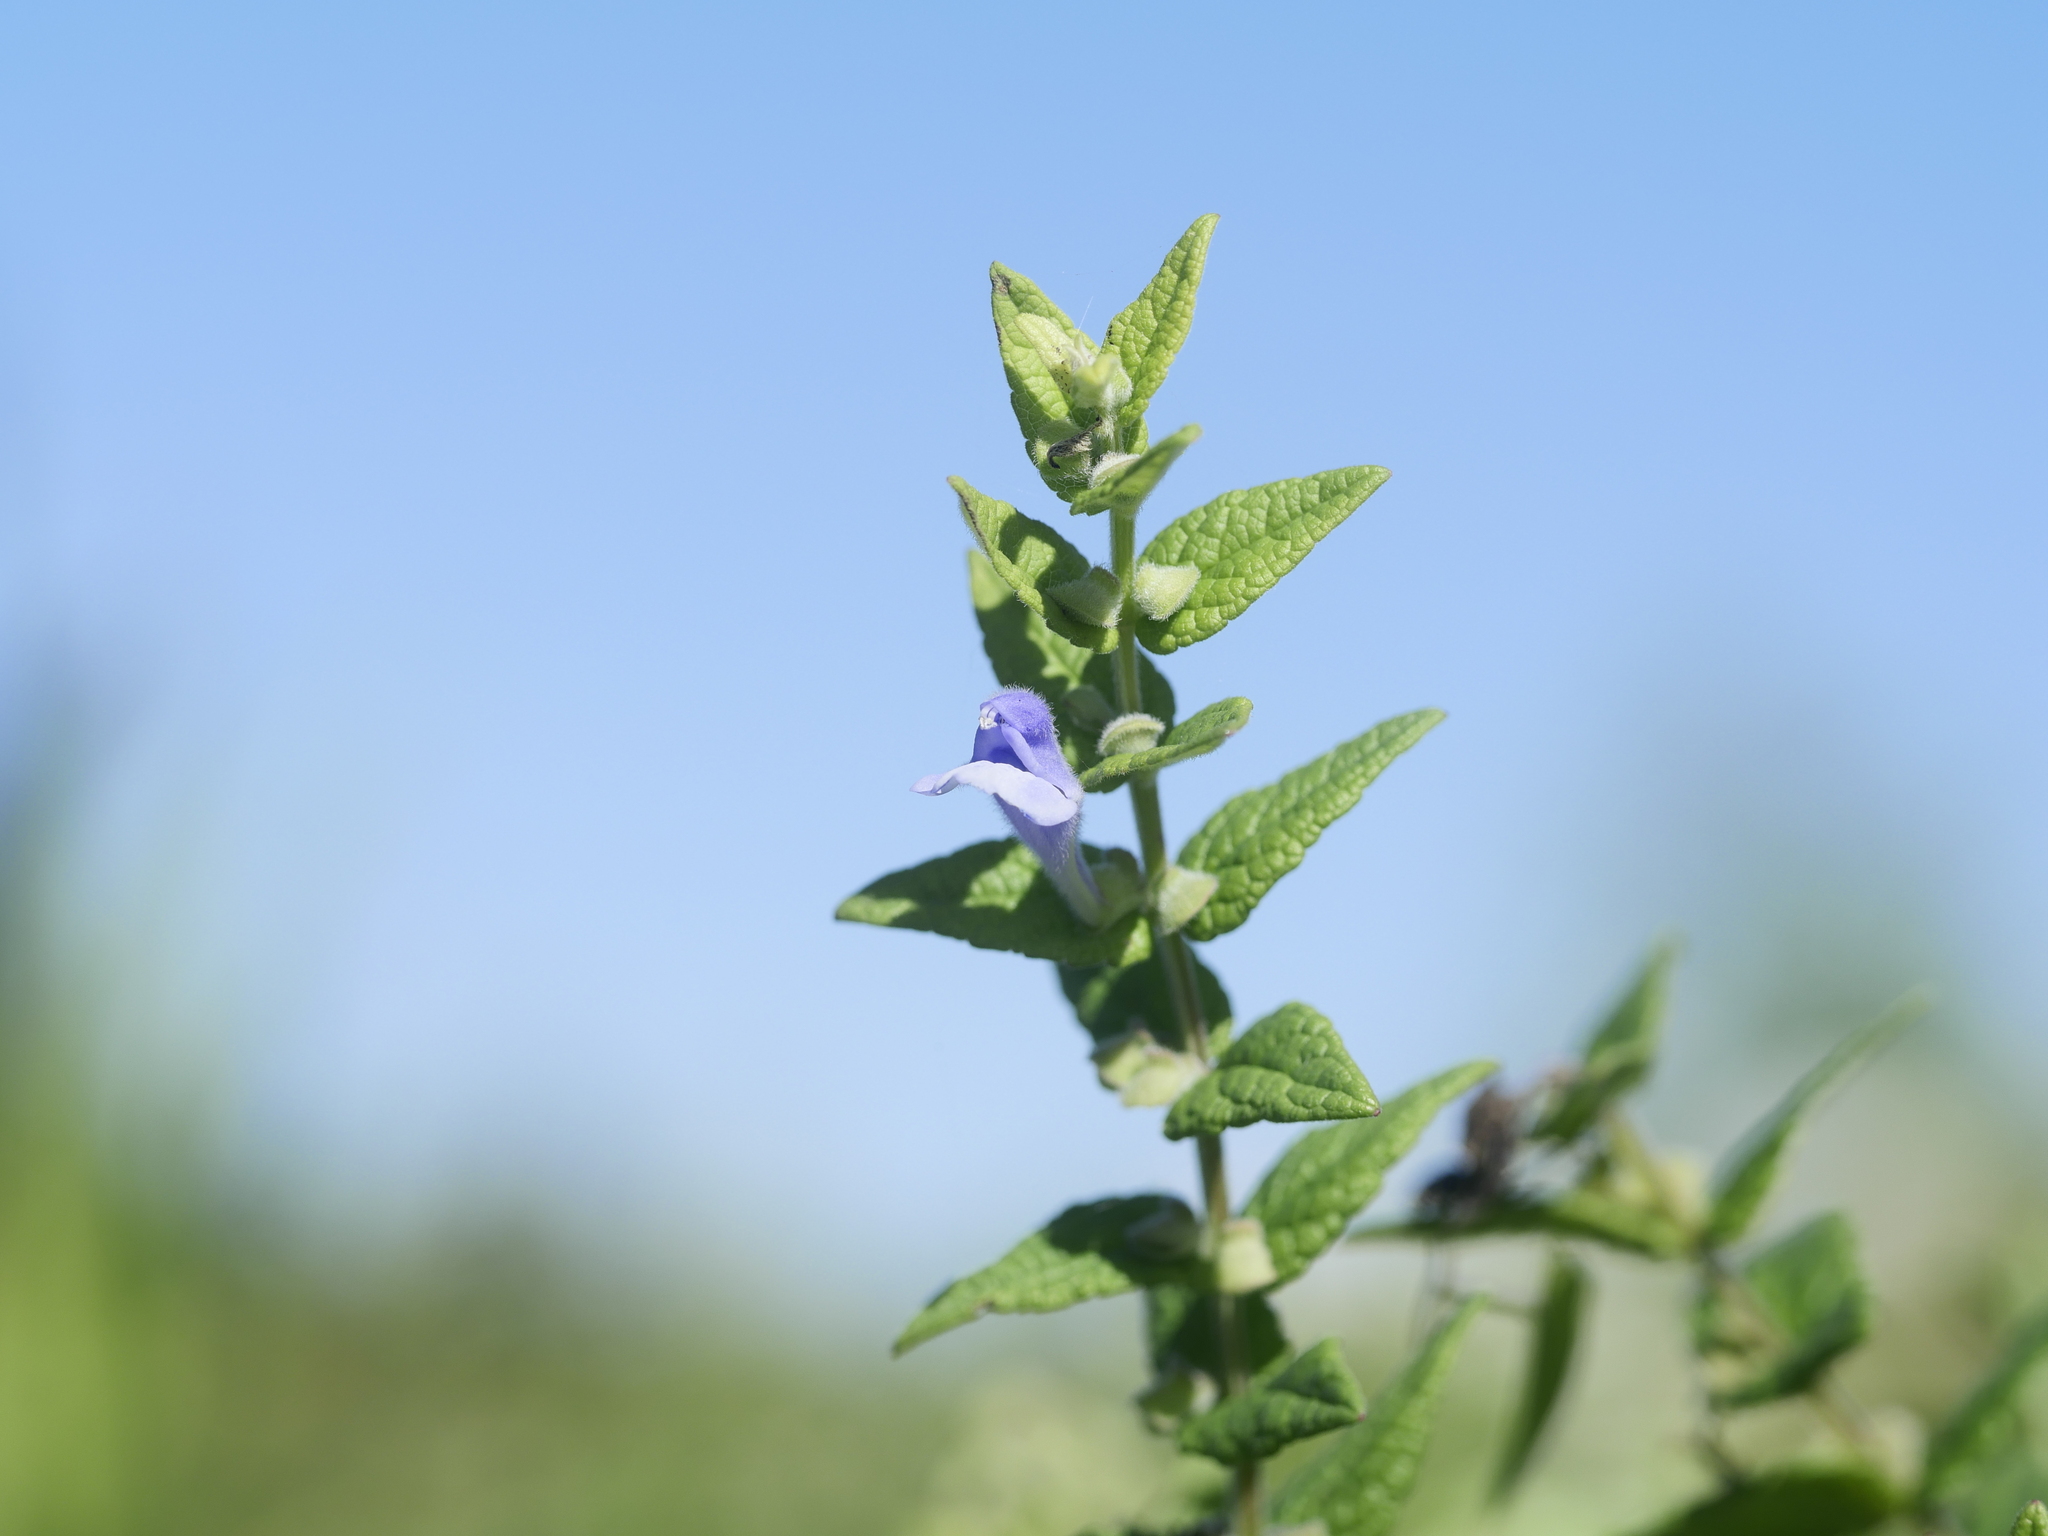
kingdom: Plantae
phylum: Tracheophyta
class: Magnoliopsida
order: Lamiales
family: Lamiaceae
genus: Scutellaria
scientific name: Scutellaria galericulata
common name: Skullcap
